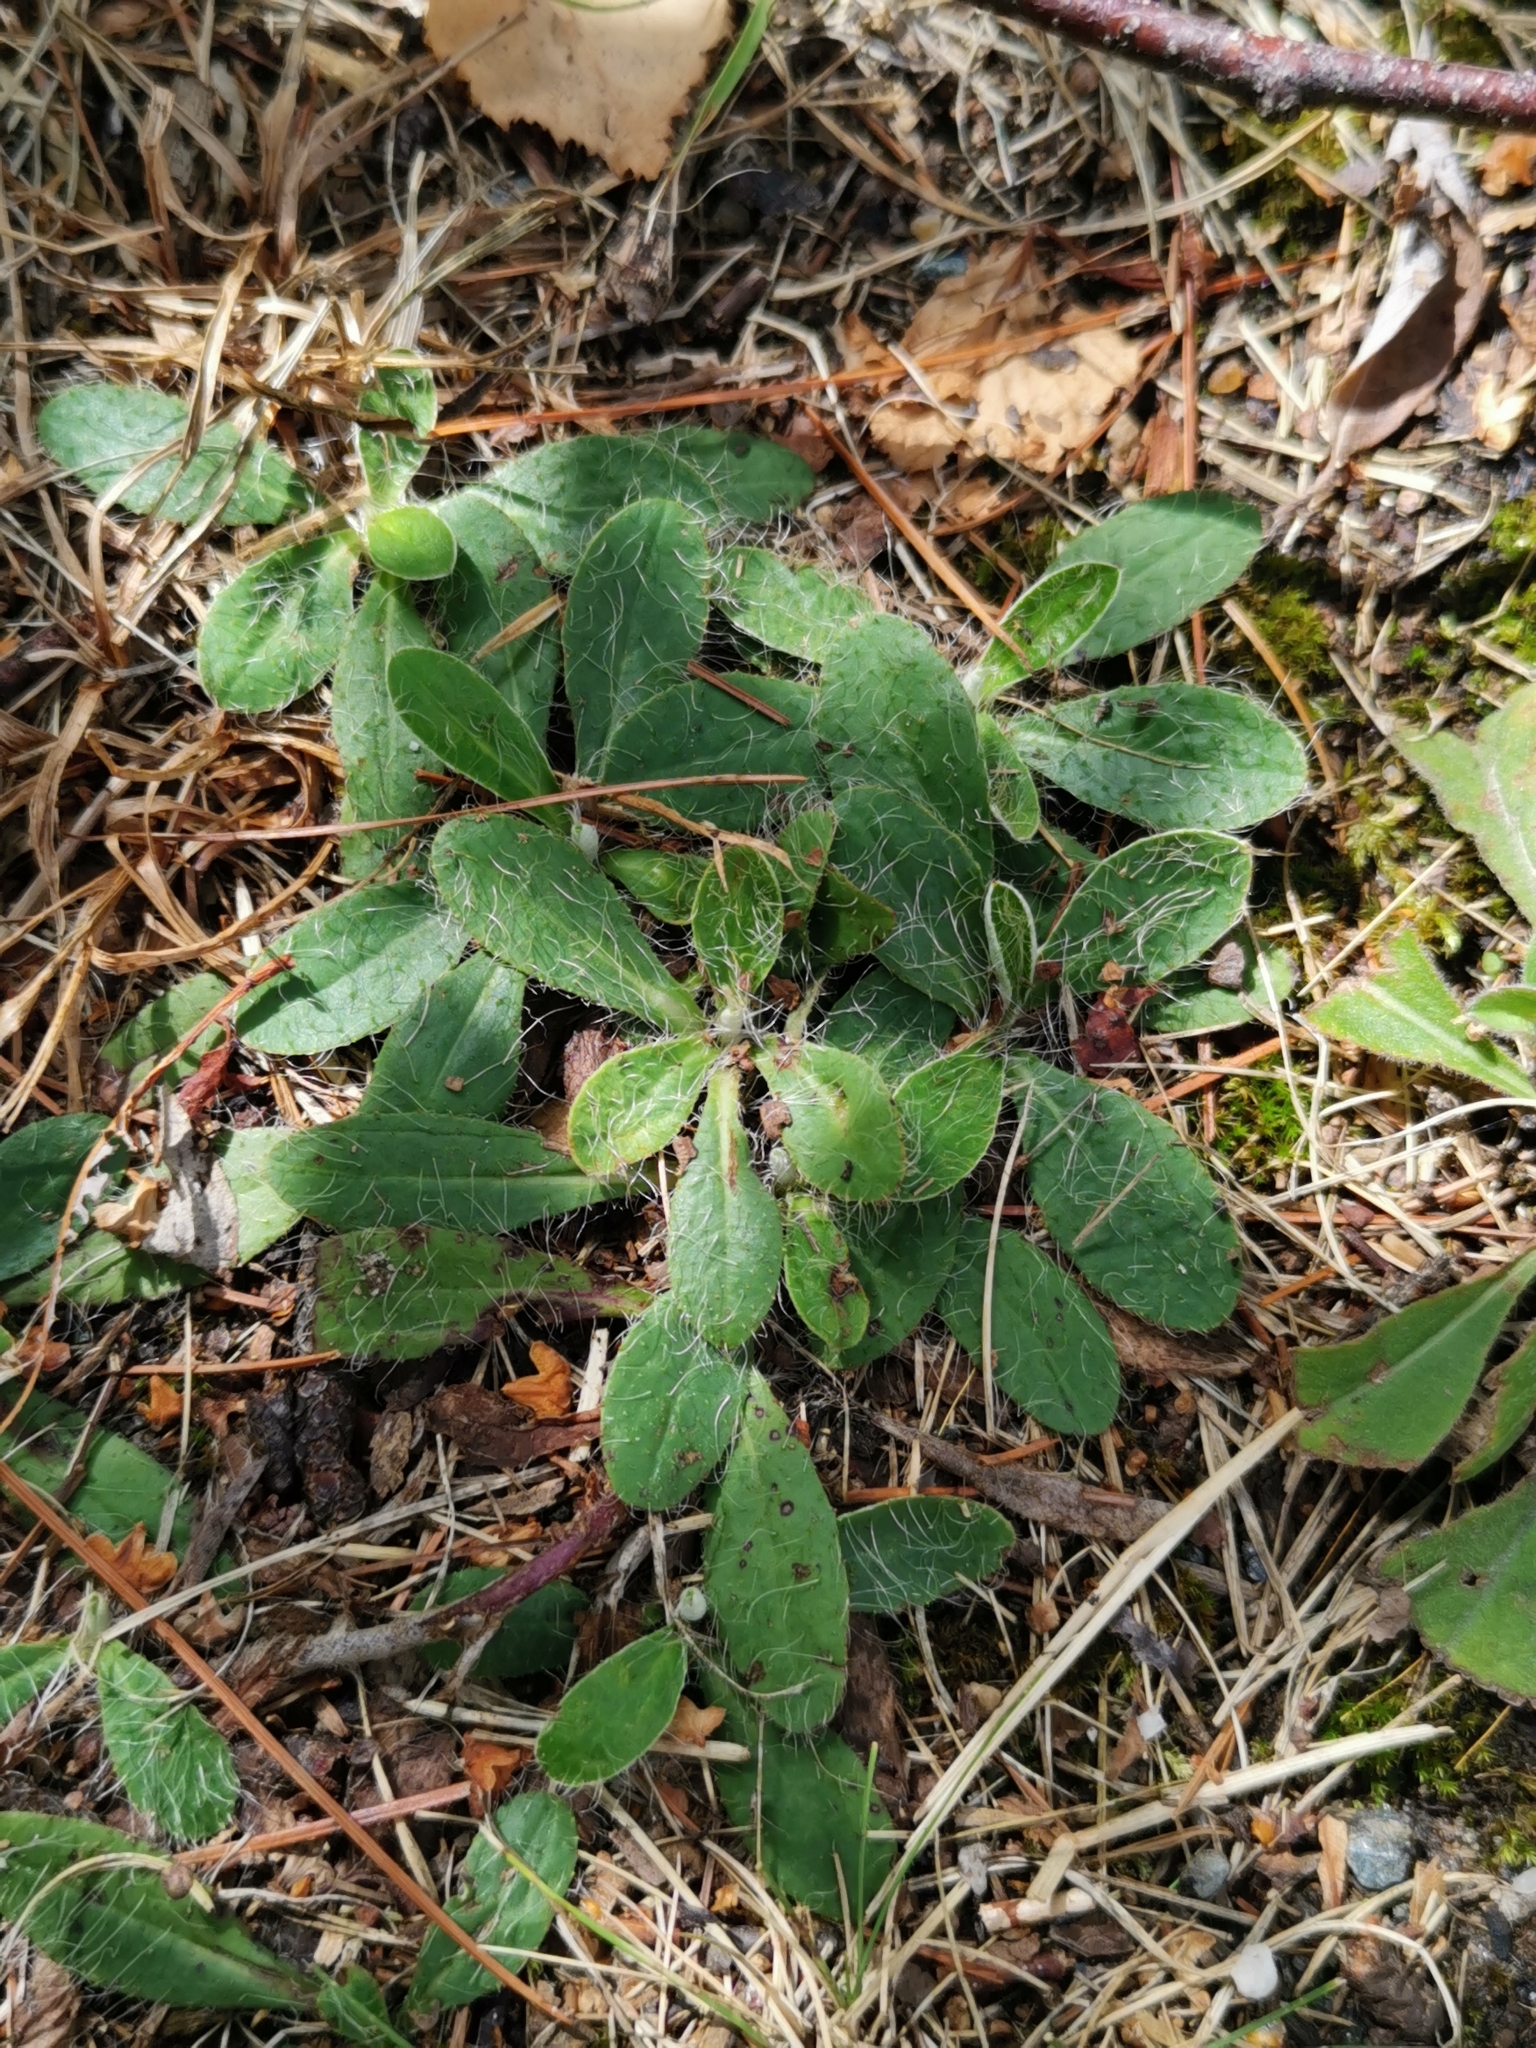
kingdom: Plantae
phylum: Tracheophyta
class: Magnoliopsida
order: Asterales
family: Asteraceae
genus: Pilosella
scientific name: Pilosella officinarum
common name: Mouse-ear hawkweed
